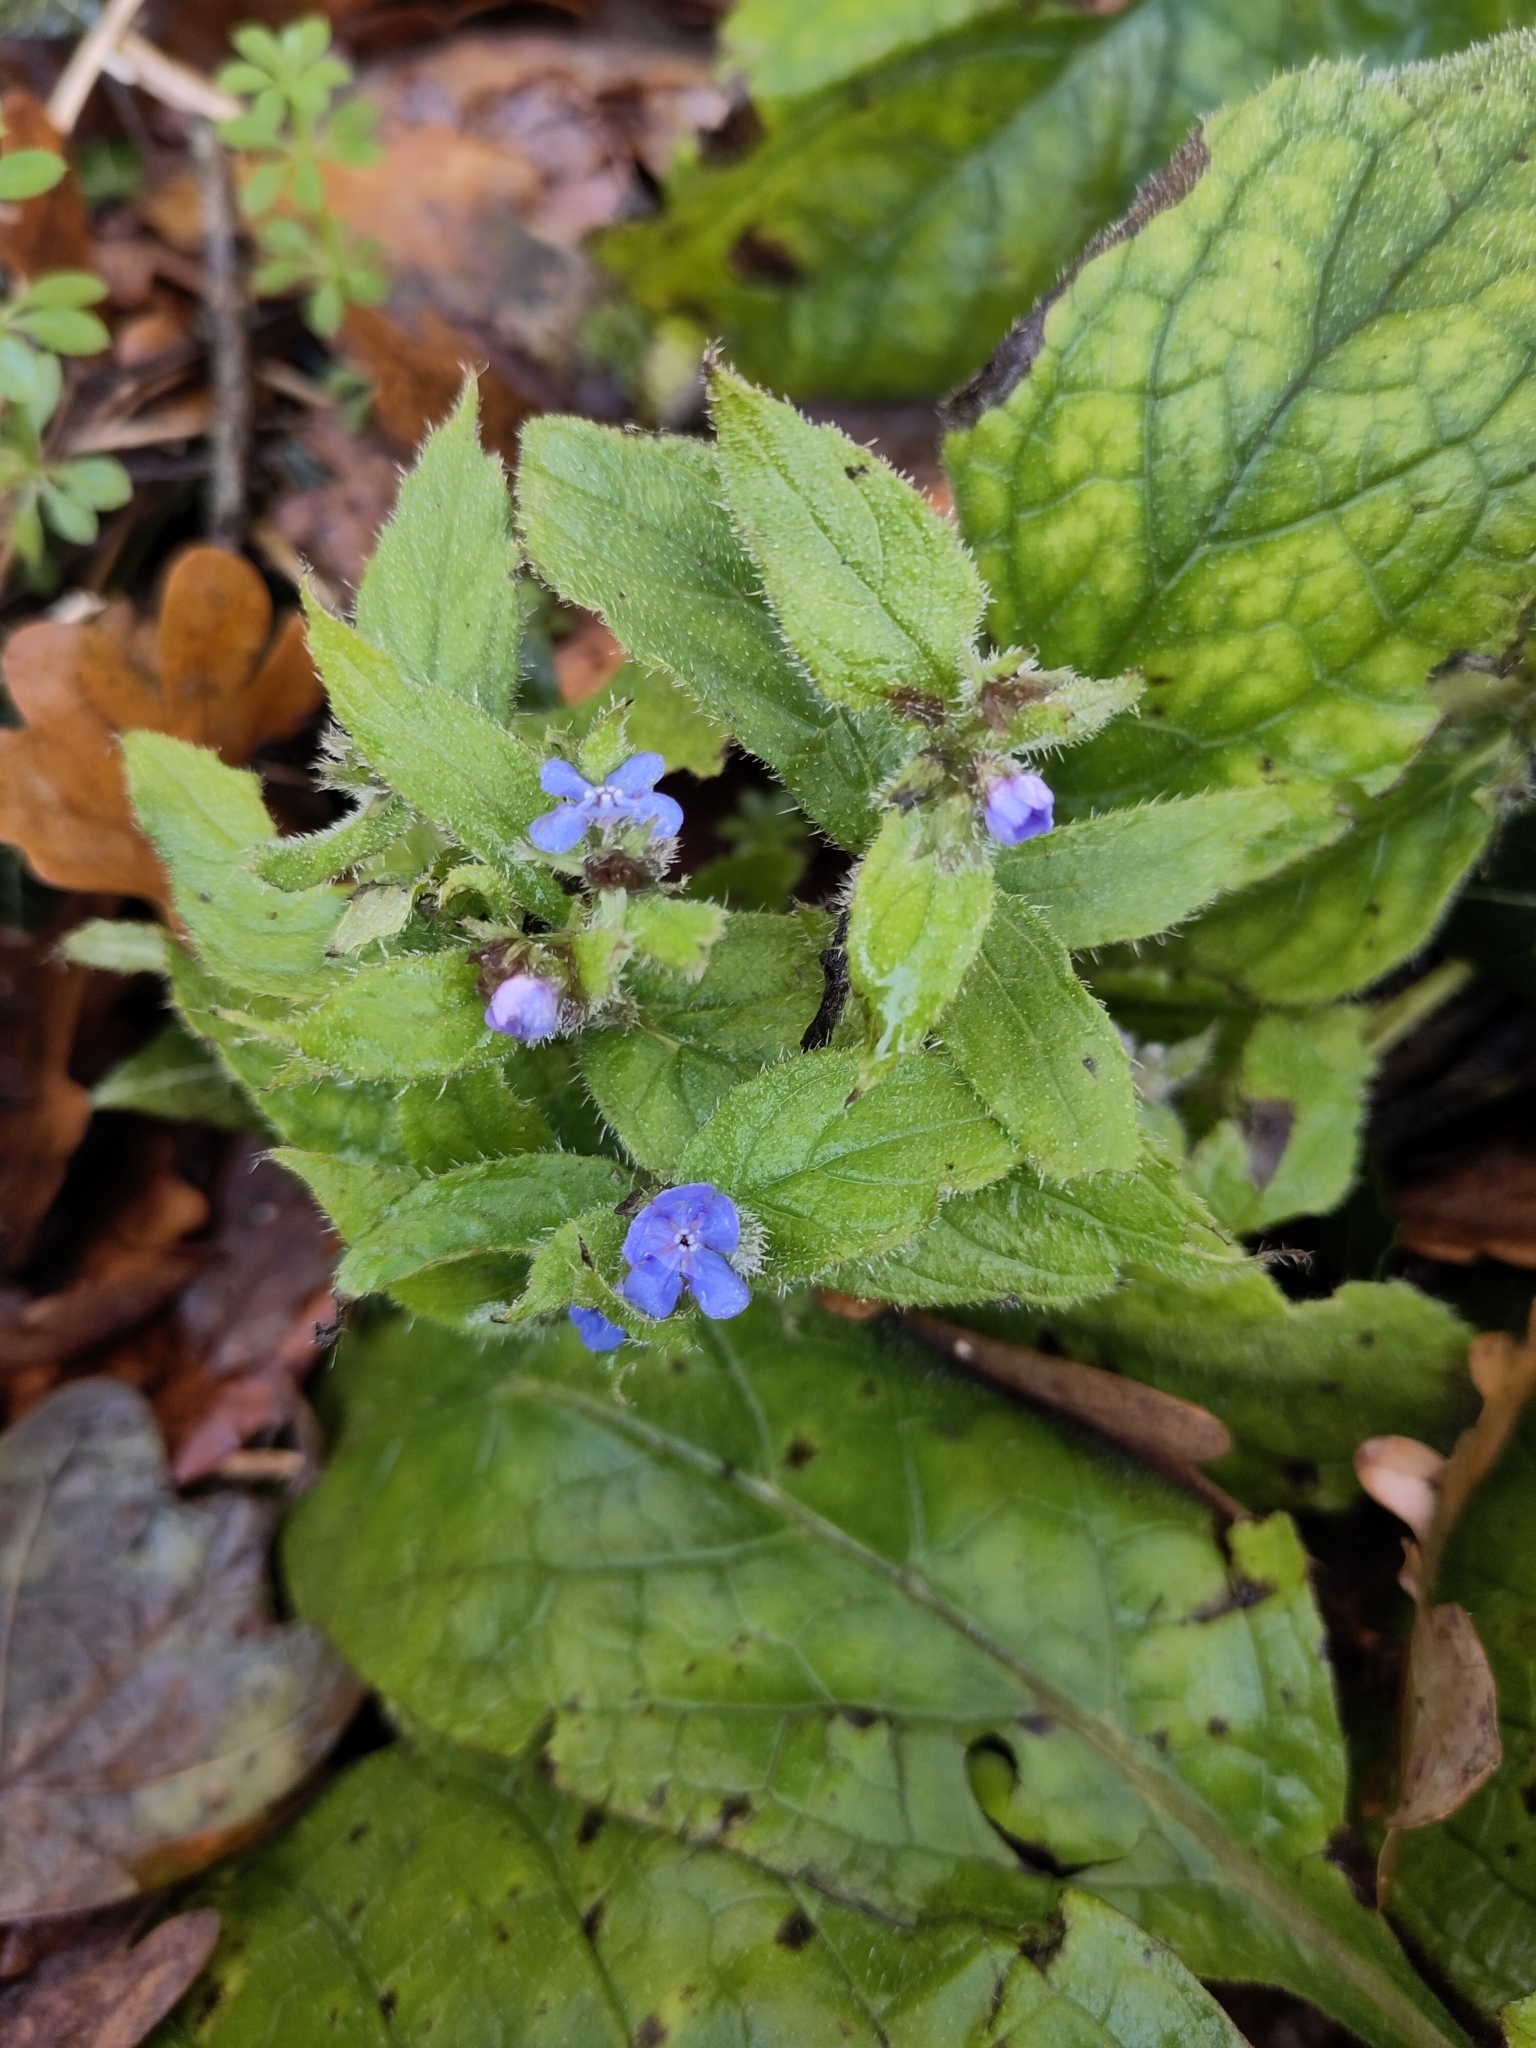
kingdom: Plantae
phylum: Tracheophyta
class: Magnoliopsida
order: Boraginales
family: Boraginaceae
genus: Pentaglottis
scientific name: Pentaglottis sempervirens
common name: Green alkanet
